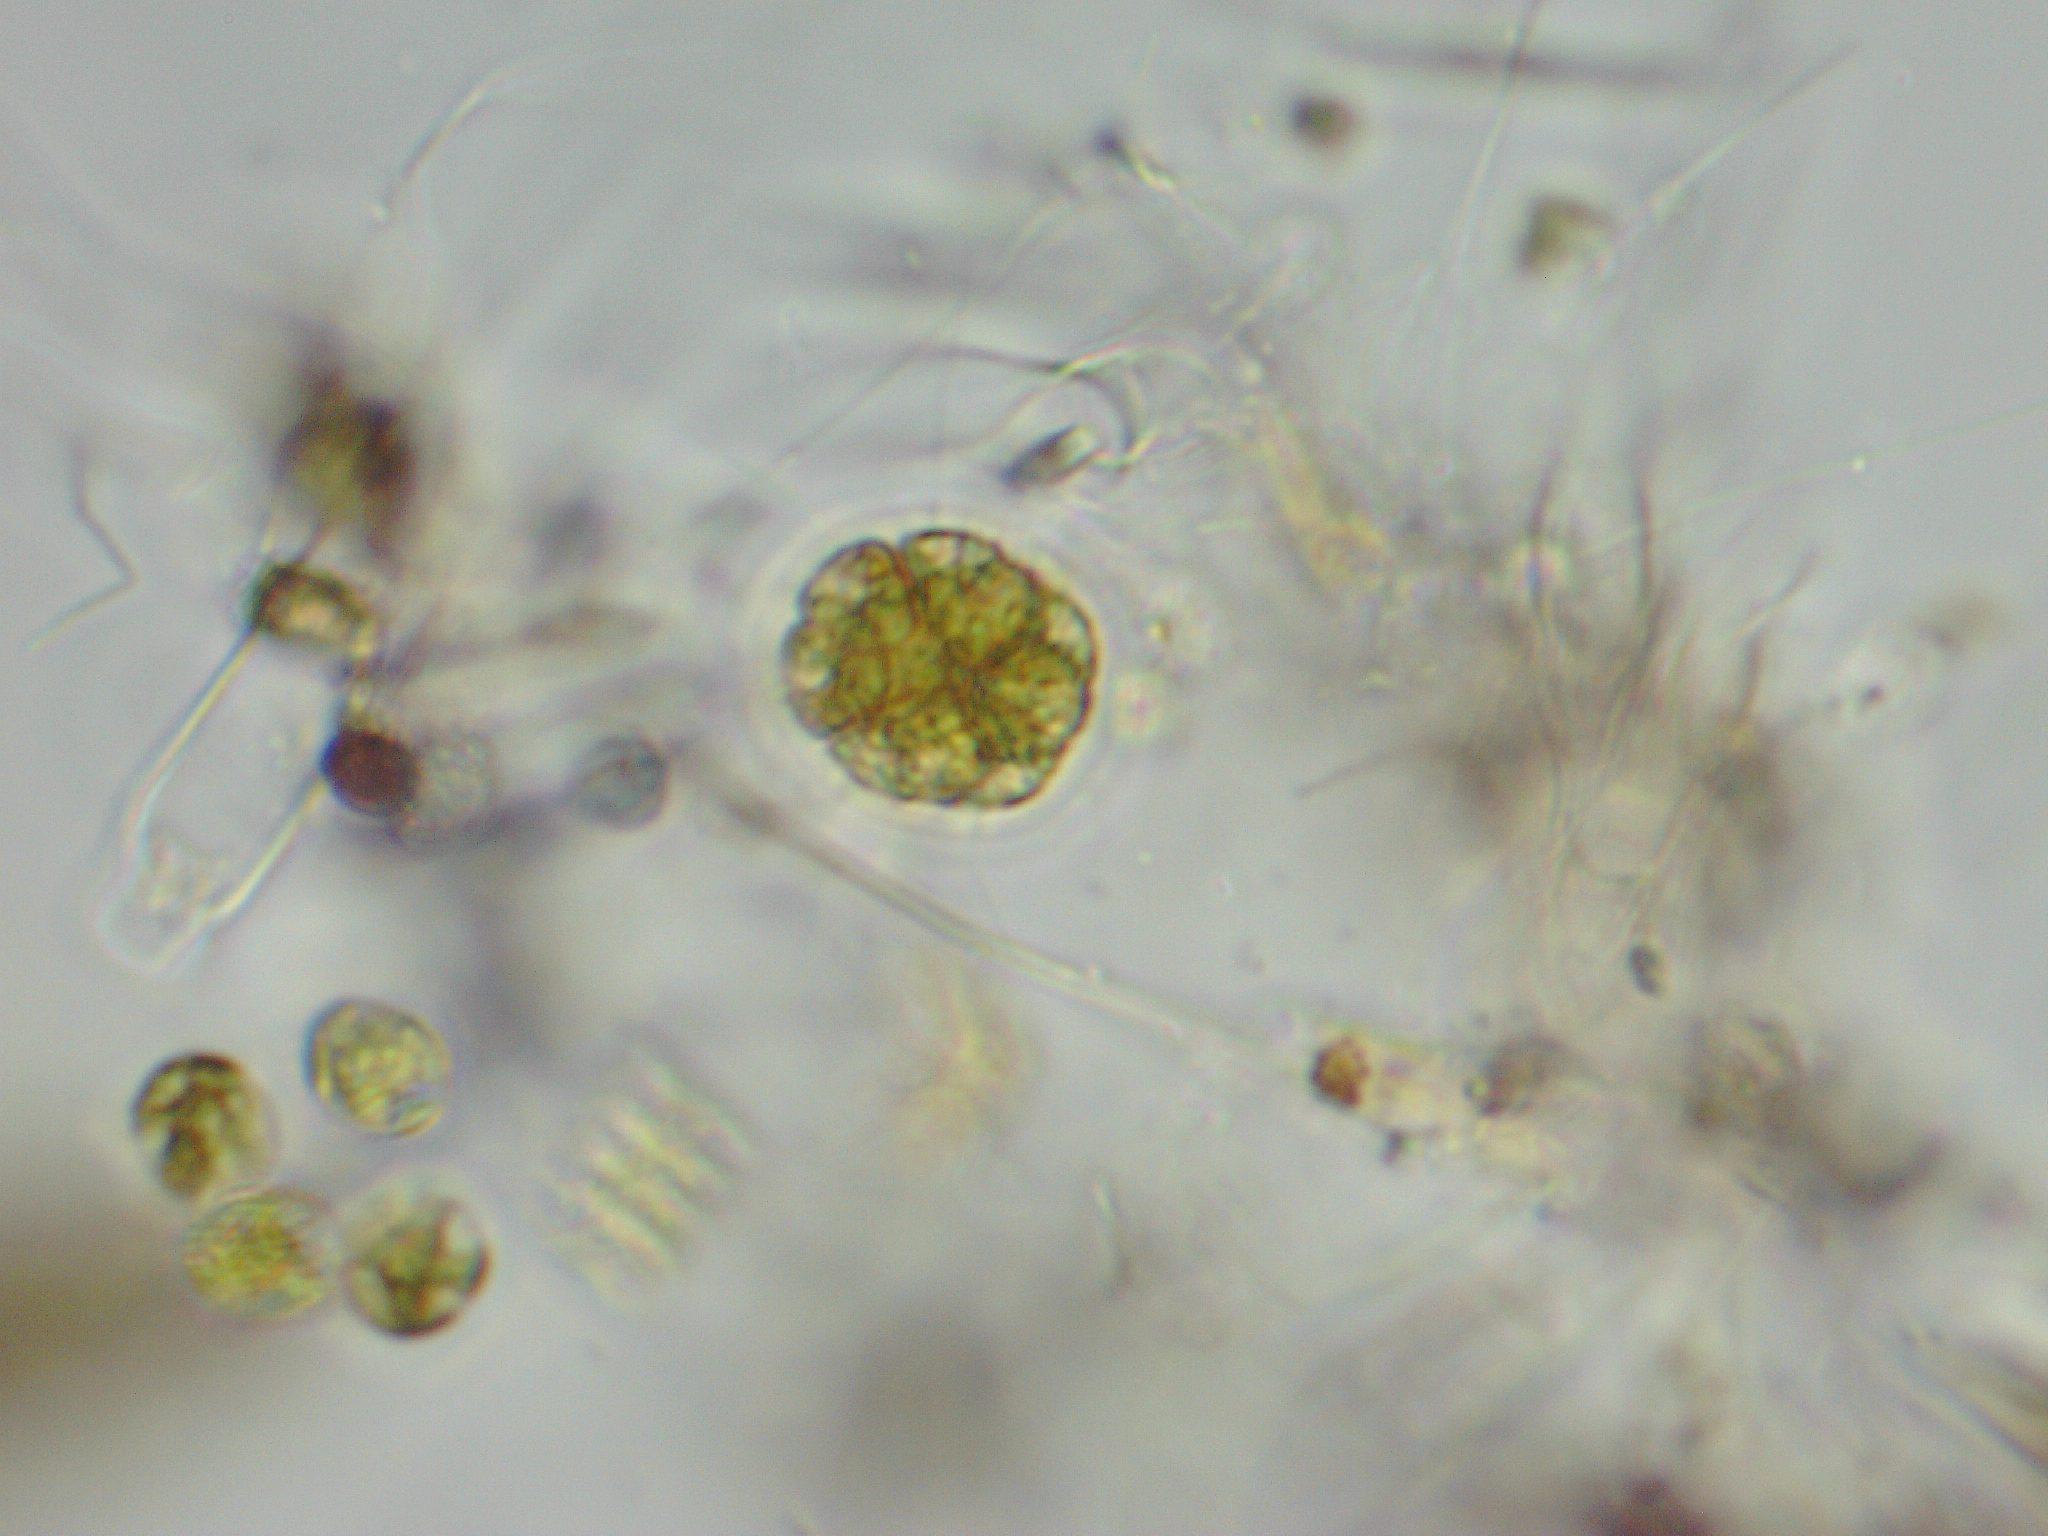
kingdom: Plantae
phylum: Chlorophyta
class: Chlorophyceae
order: Volvocales
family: Volvocaceae
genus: Pandorina
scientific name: Pandorina morum
